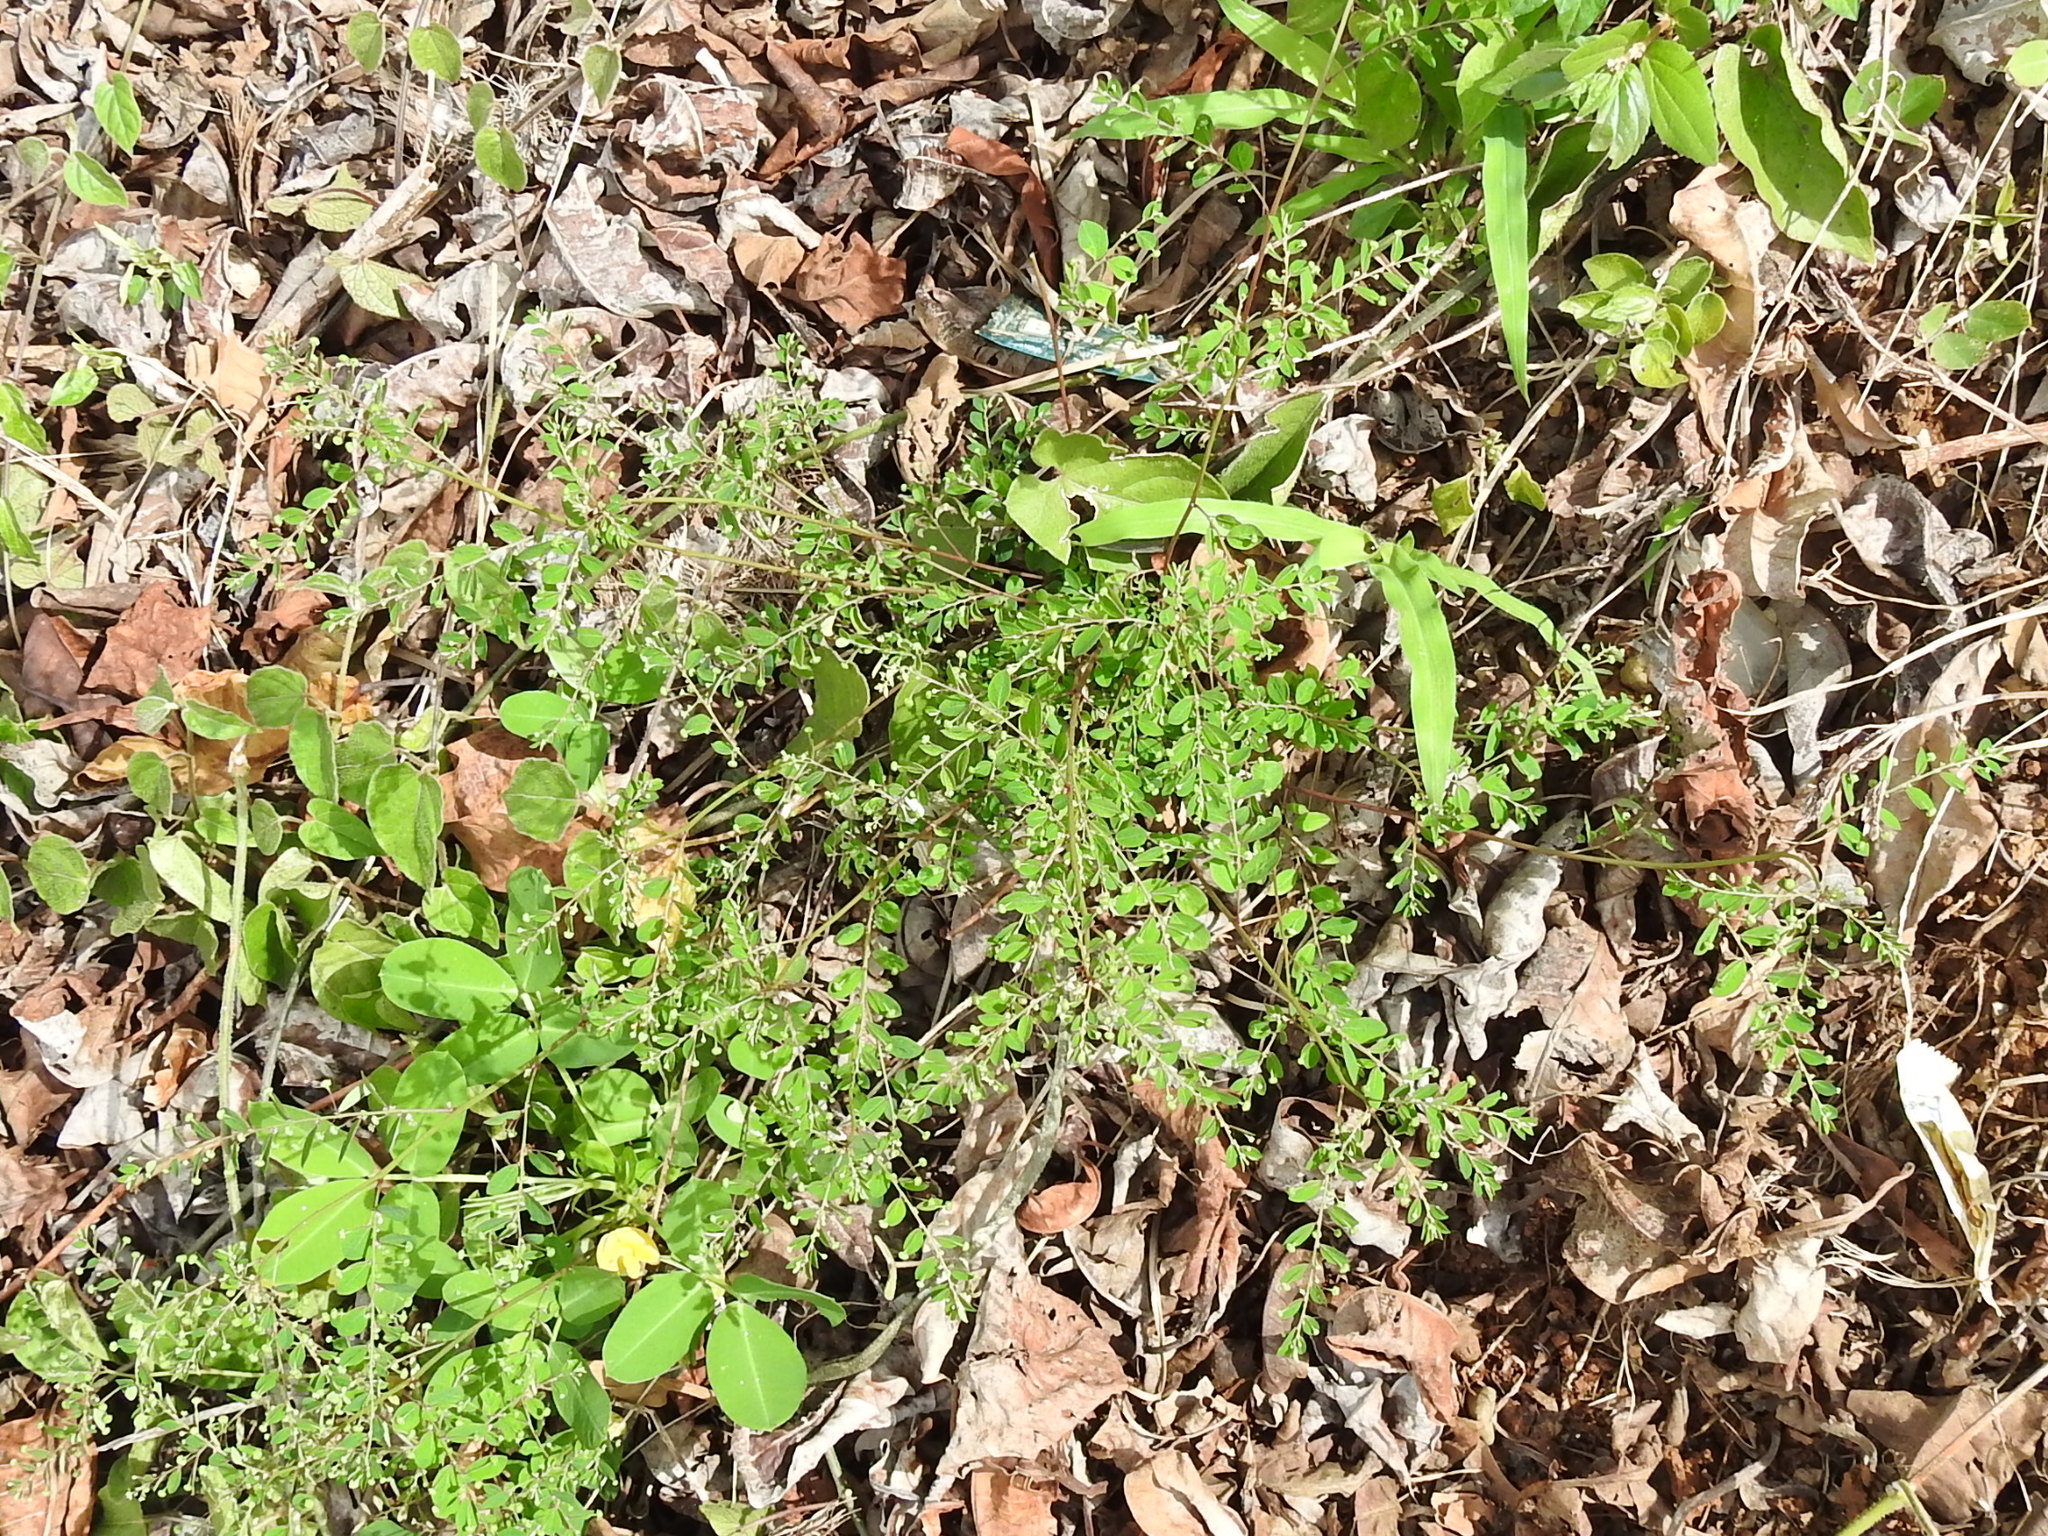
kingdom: Plantae
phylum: Tracheophyta
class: Magnoliopsida
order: Malpighiales
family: Phyllanthaceae
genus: Phyllanthus
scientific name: Phyllanthus tenellus
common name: Mascarene island leaf-flower
